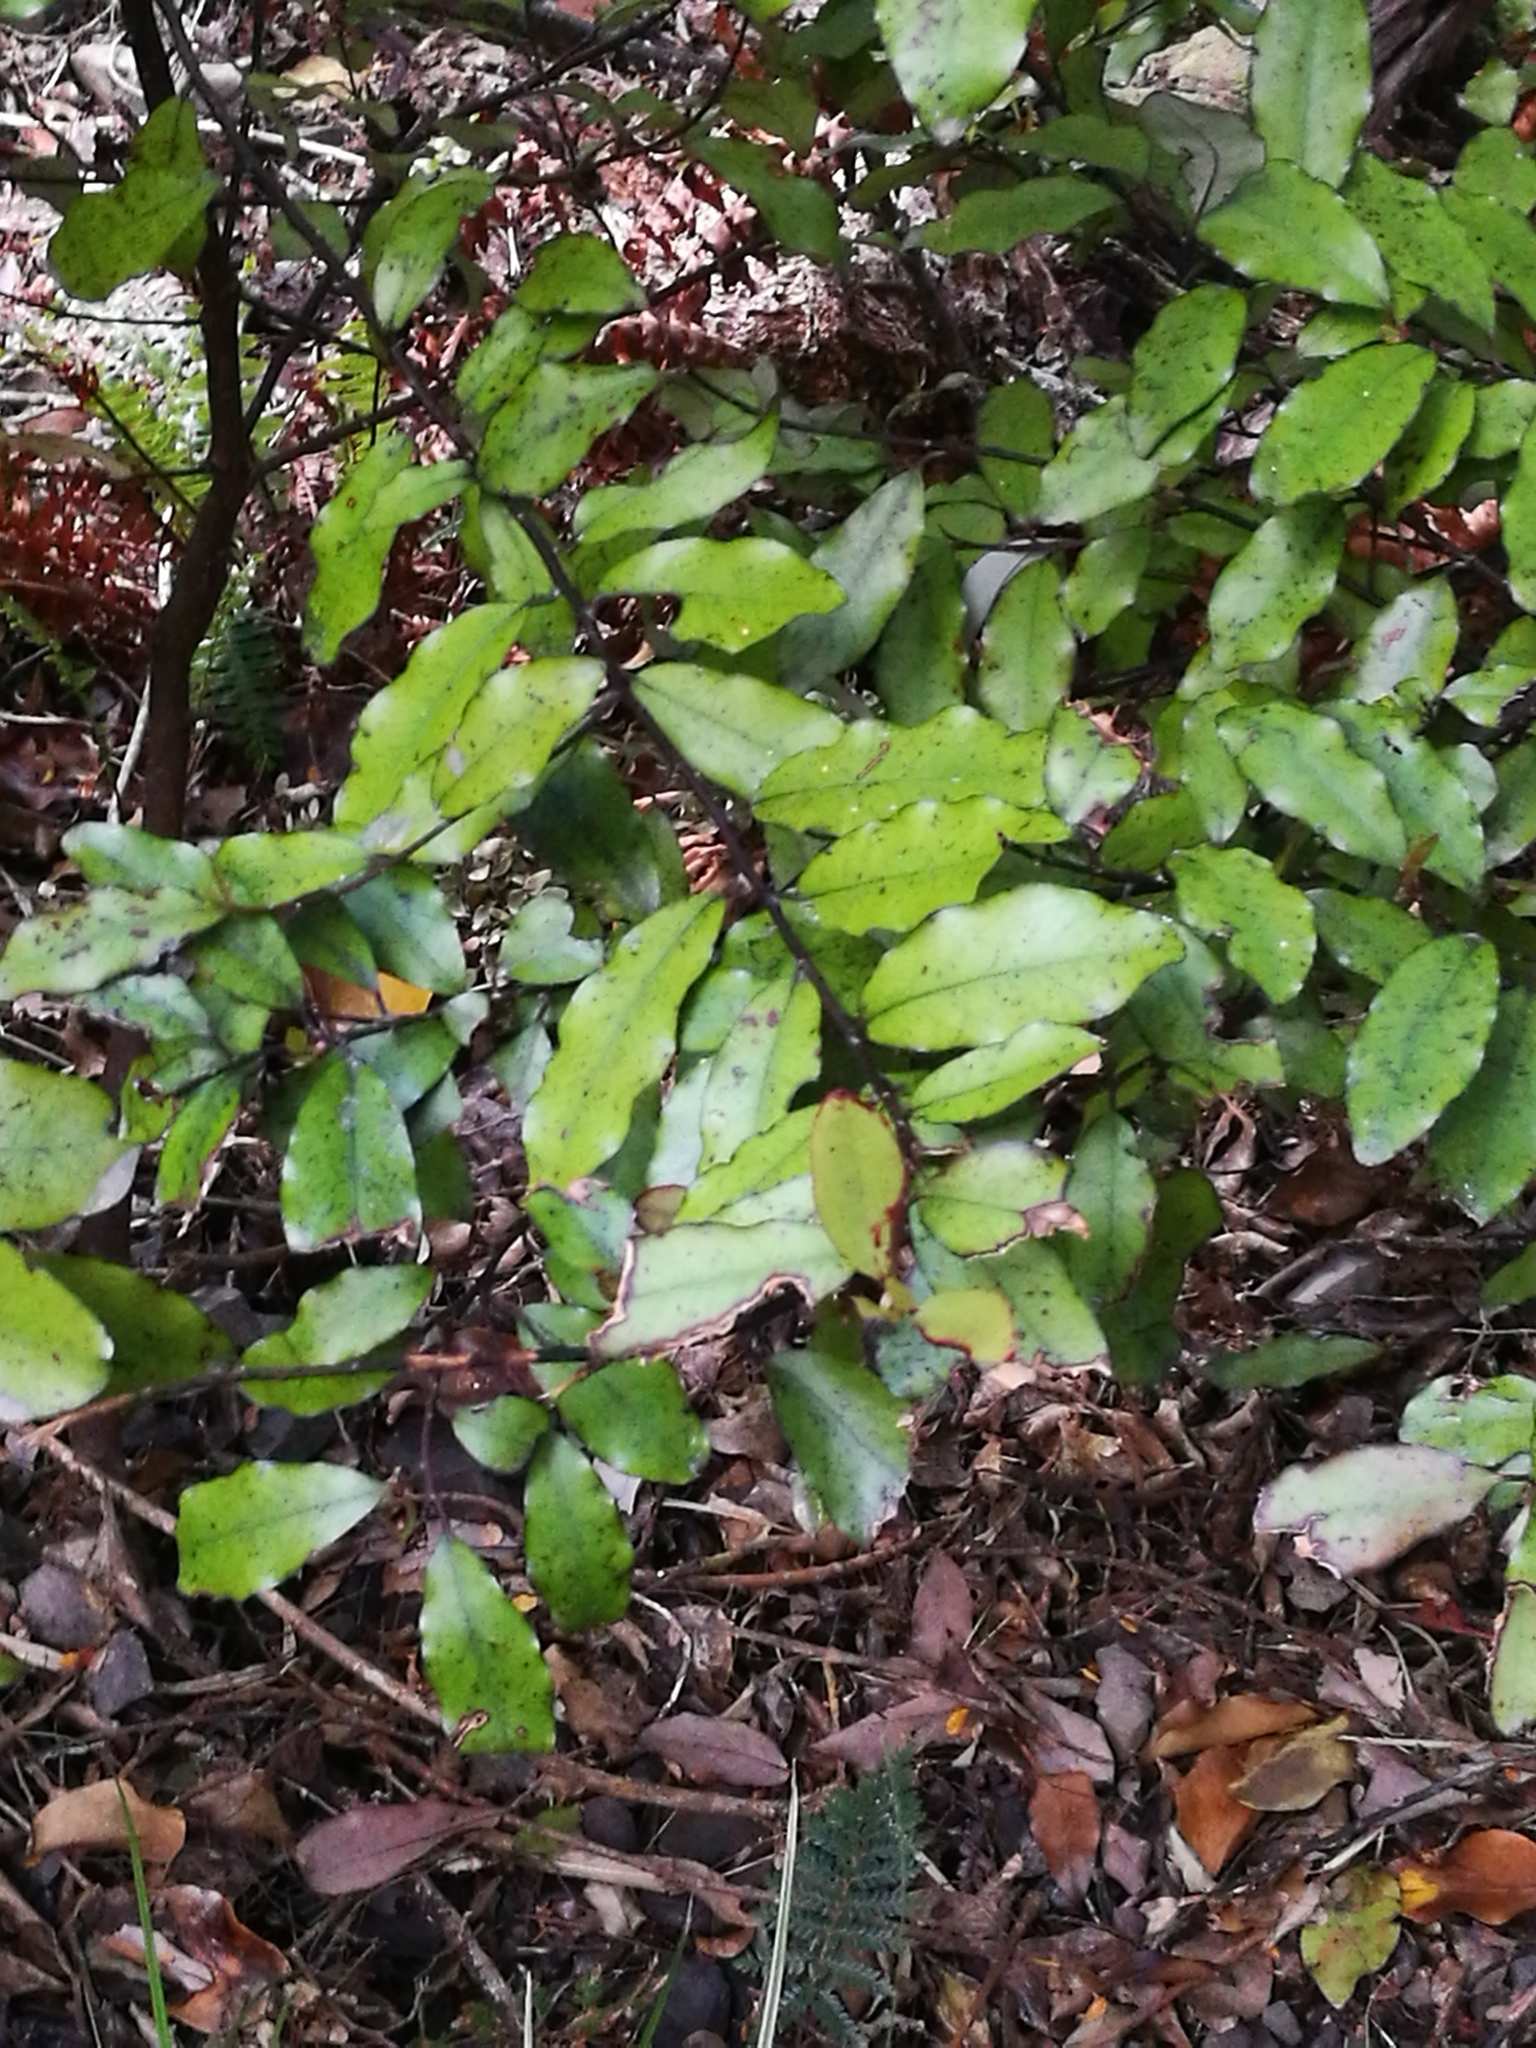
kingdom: Plantae
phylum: Tracheophyta
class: Magnoliopsida
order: Canellales
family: Winteraceae
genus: Pseudowintera
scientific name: Pseudowintera colorata
